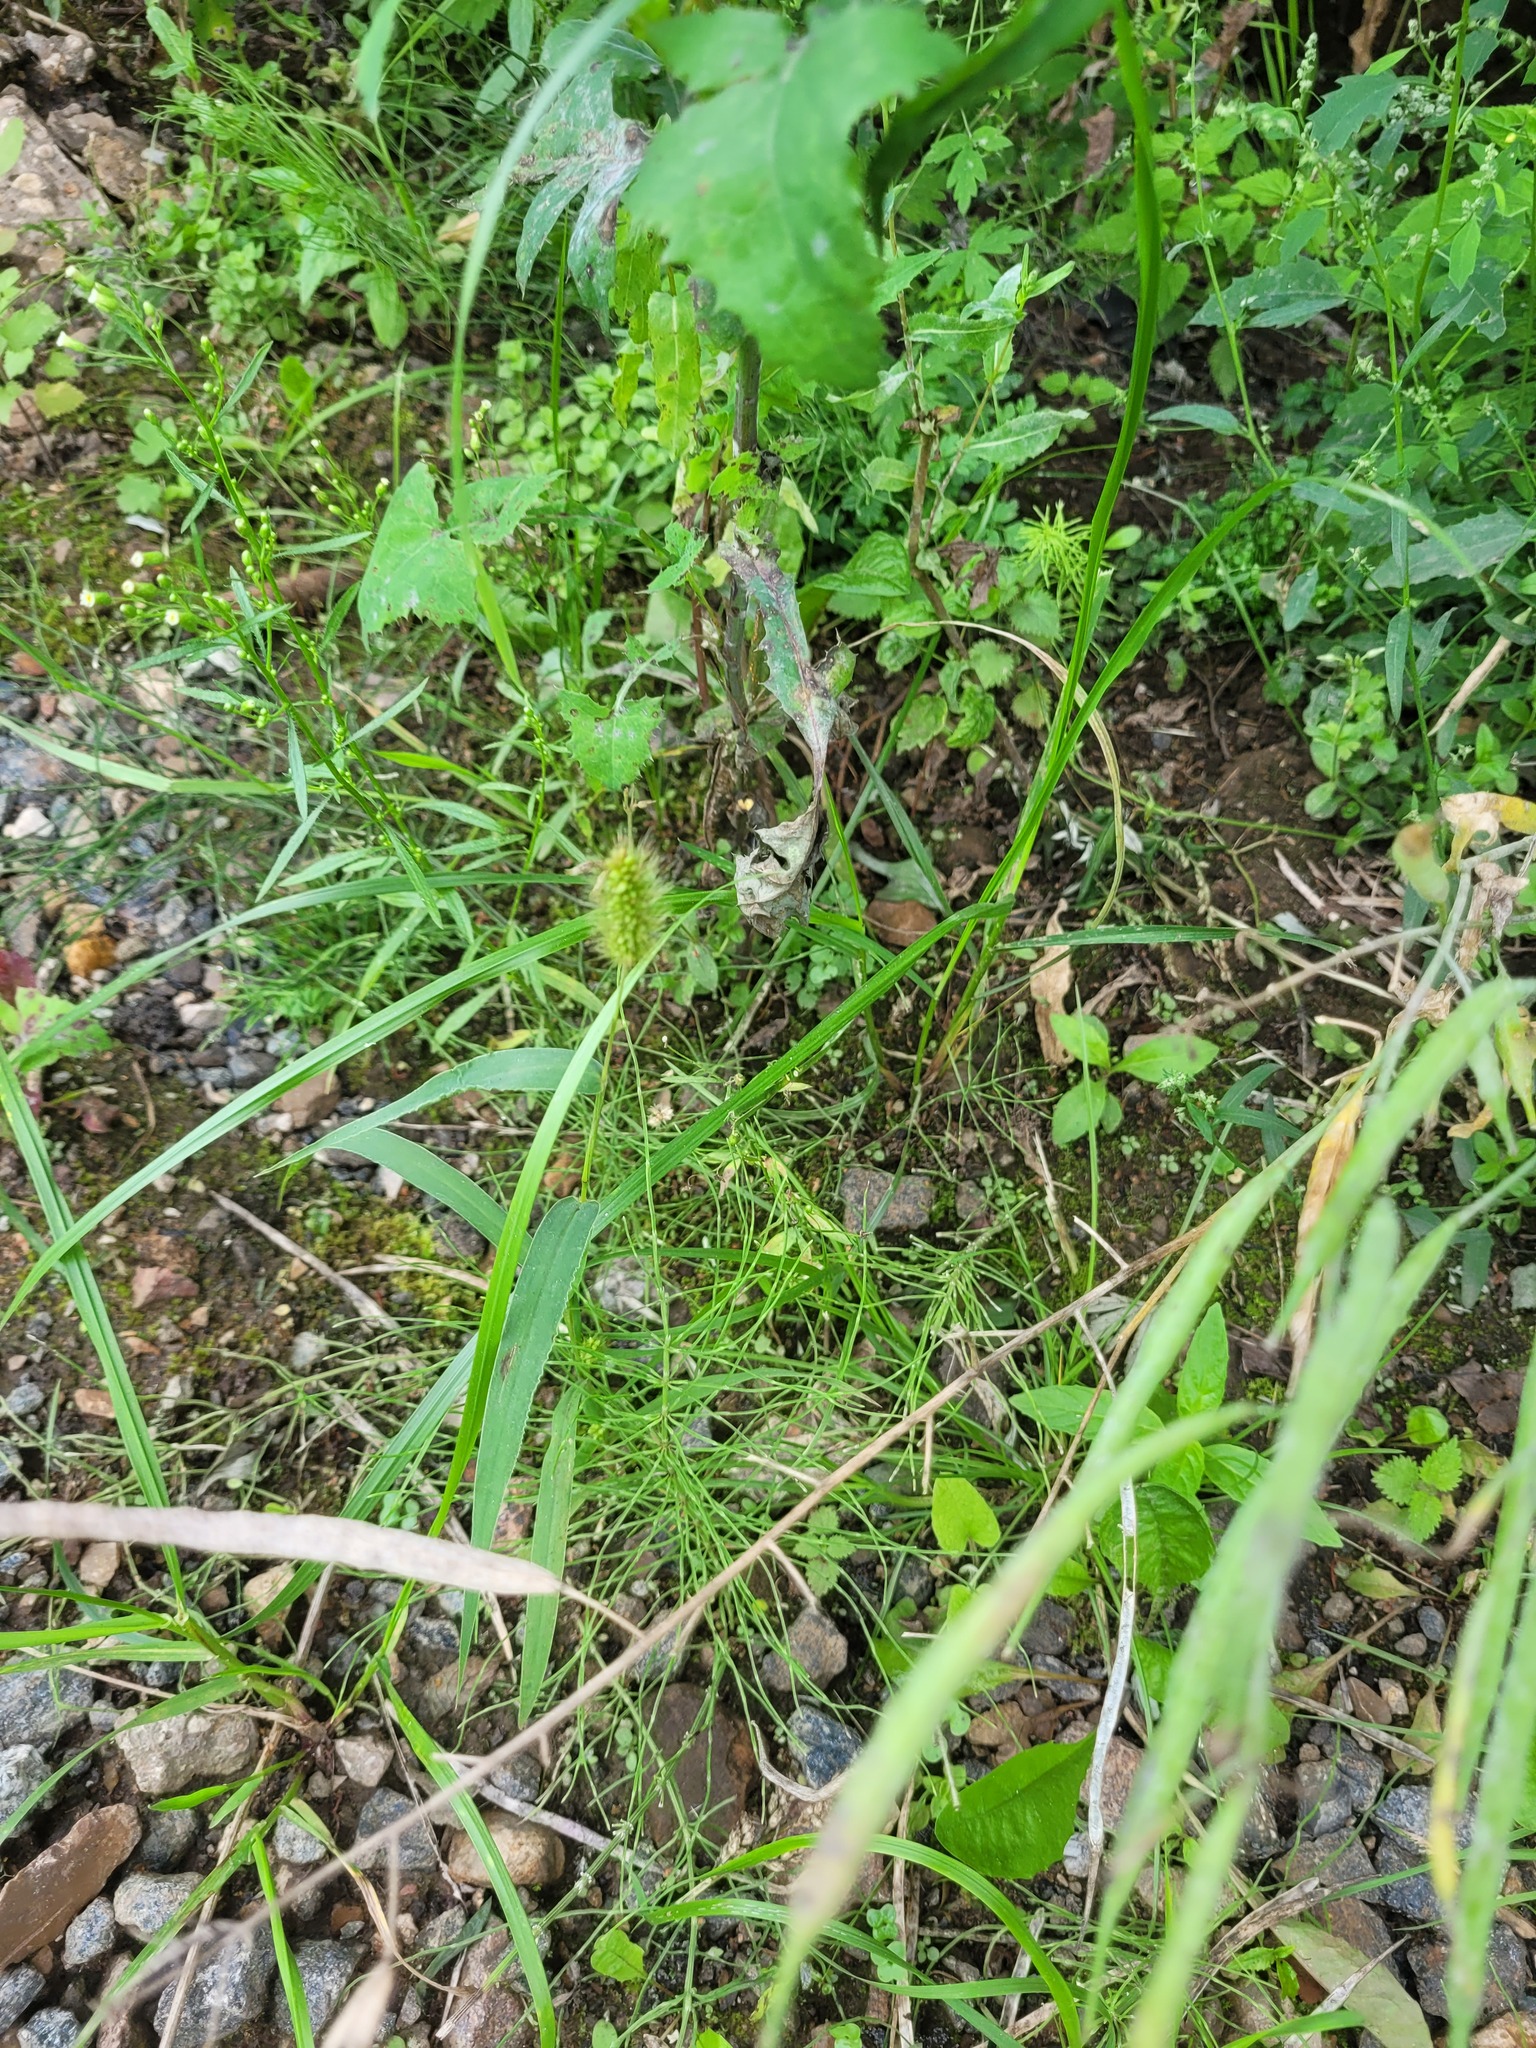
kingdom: Plantae
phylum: Tracheophyta
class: Liliopsida
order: Poales
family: Poaceae
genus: Setaria
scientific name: Setaria viridis
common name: Green bristlegrass
